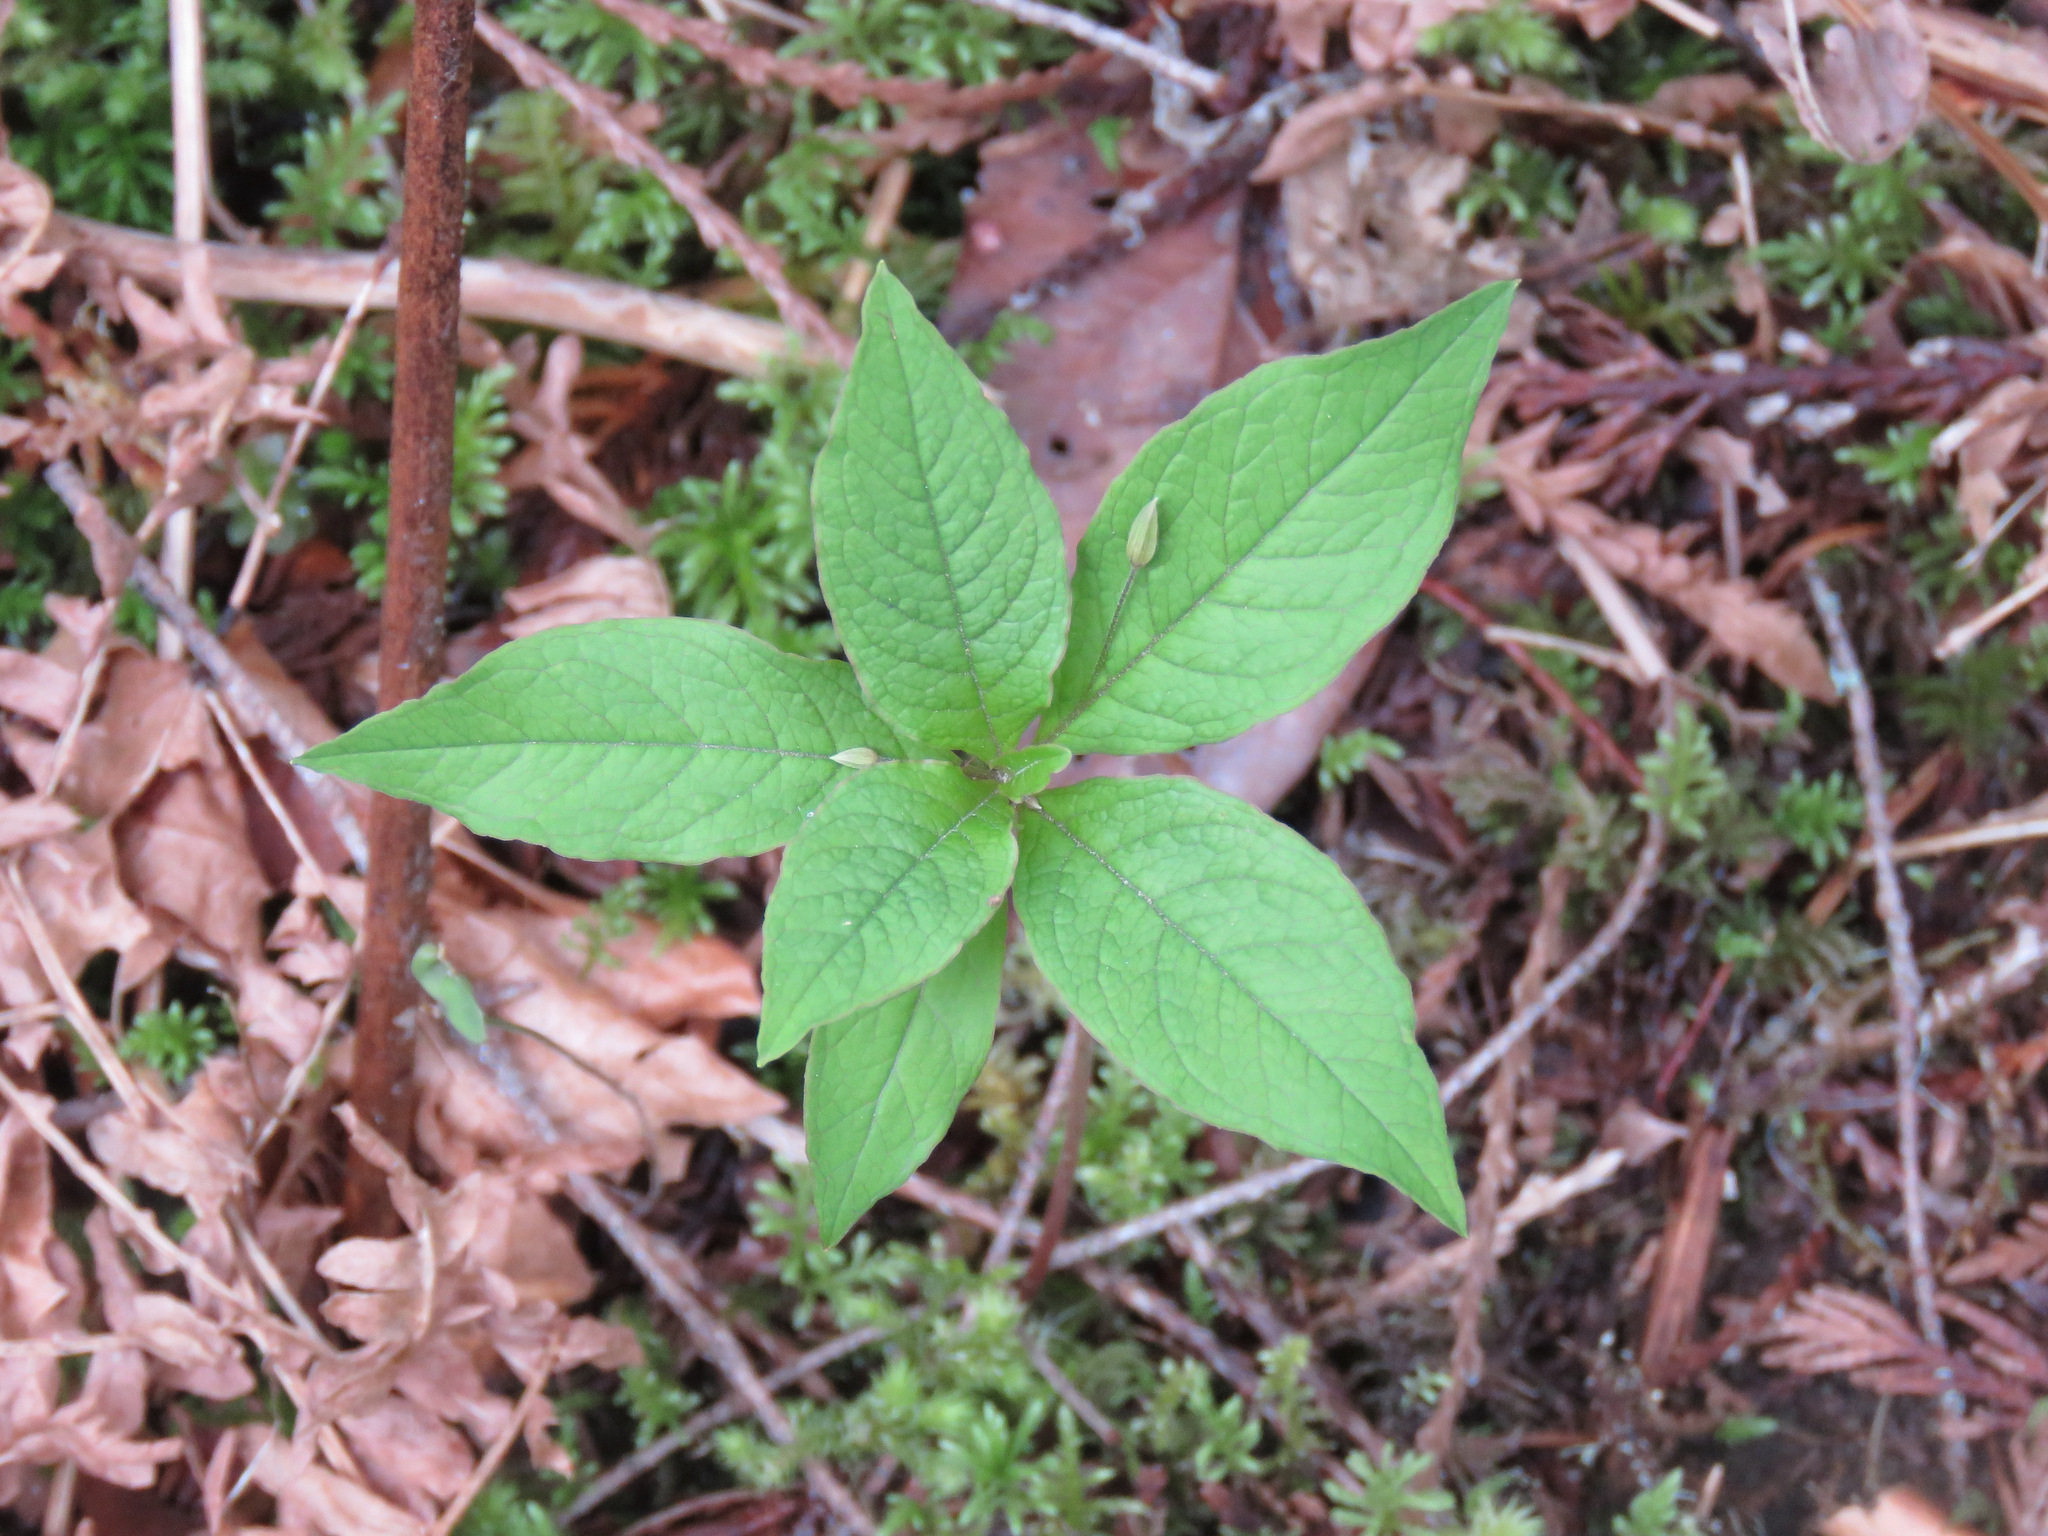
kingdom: Plantae
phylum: Tracheophyta
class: Magnoliopsida
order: Ericales
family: Primulaceae
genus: Lysimachia
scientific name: Lysimachia latifolia
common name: Pacific starflower
